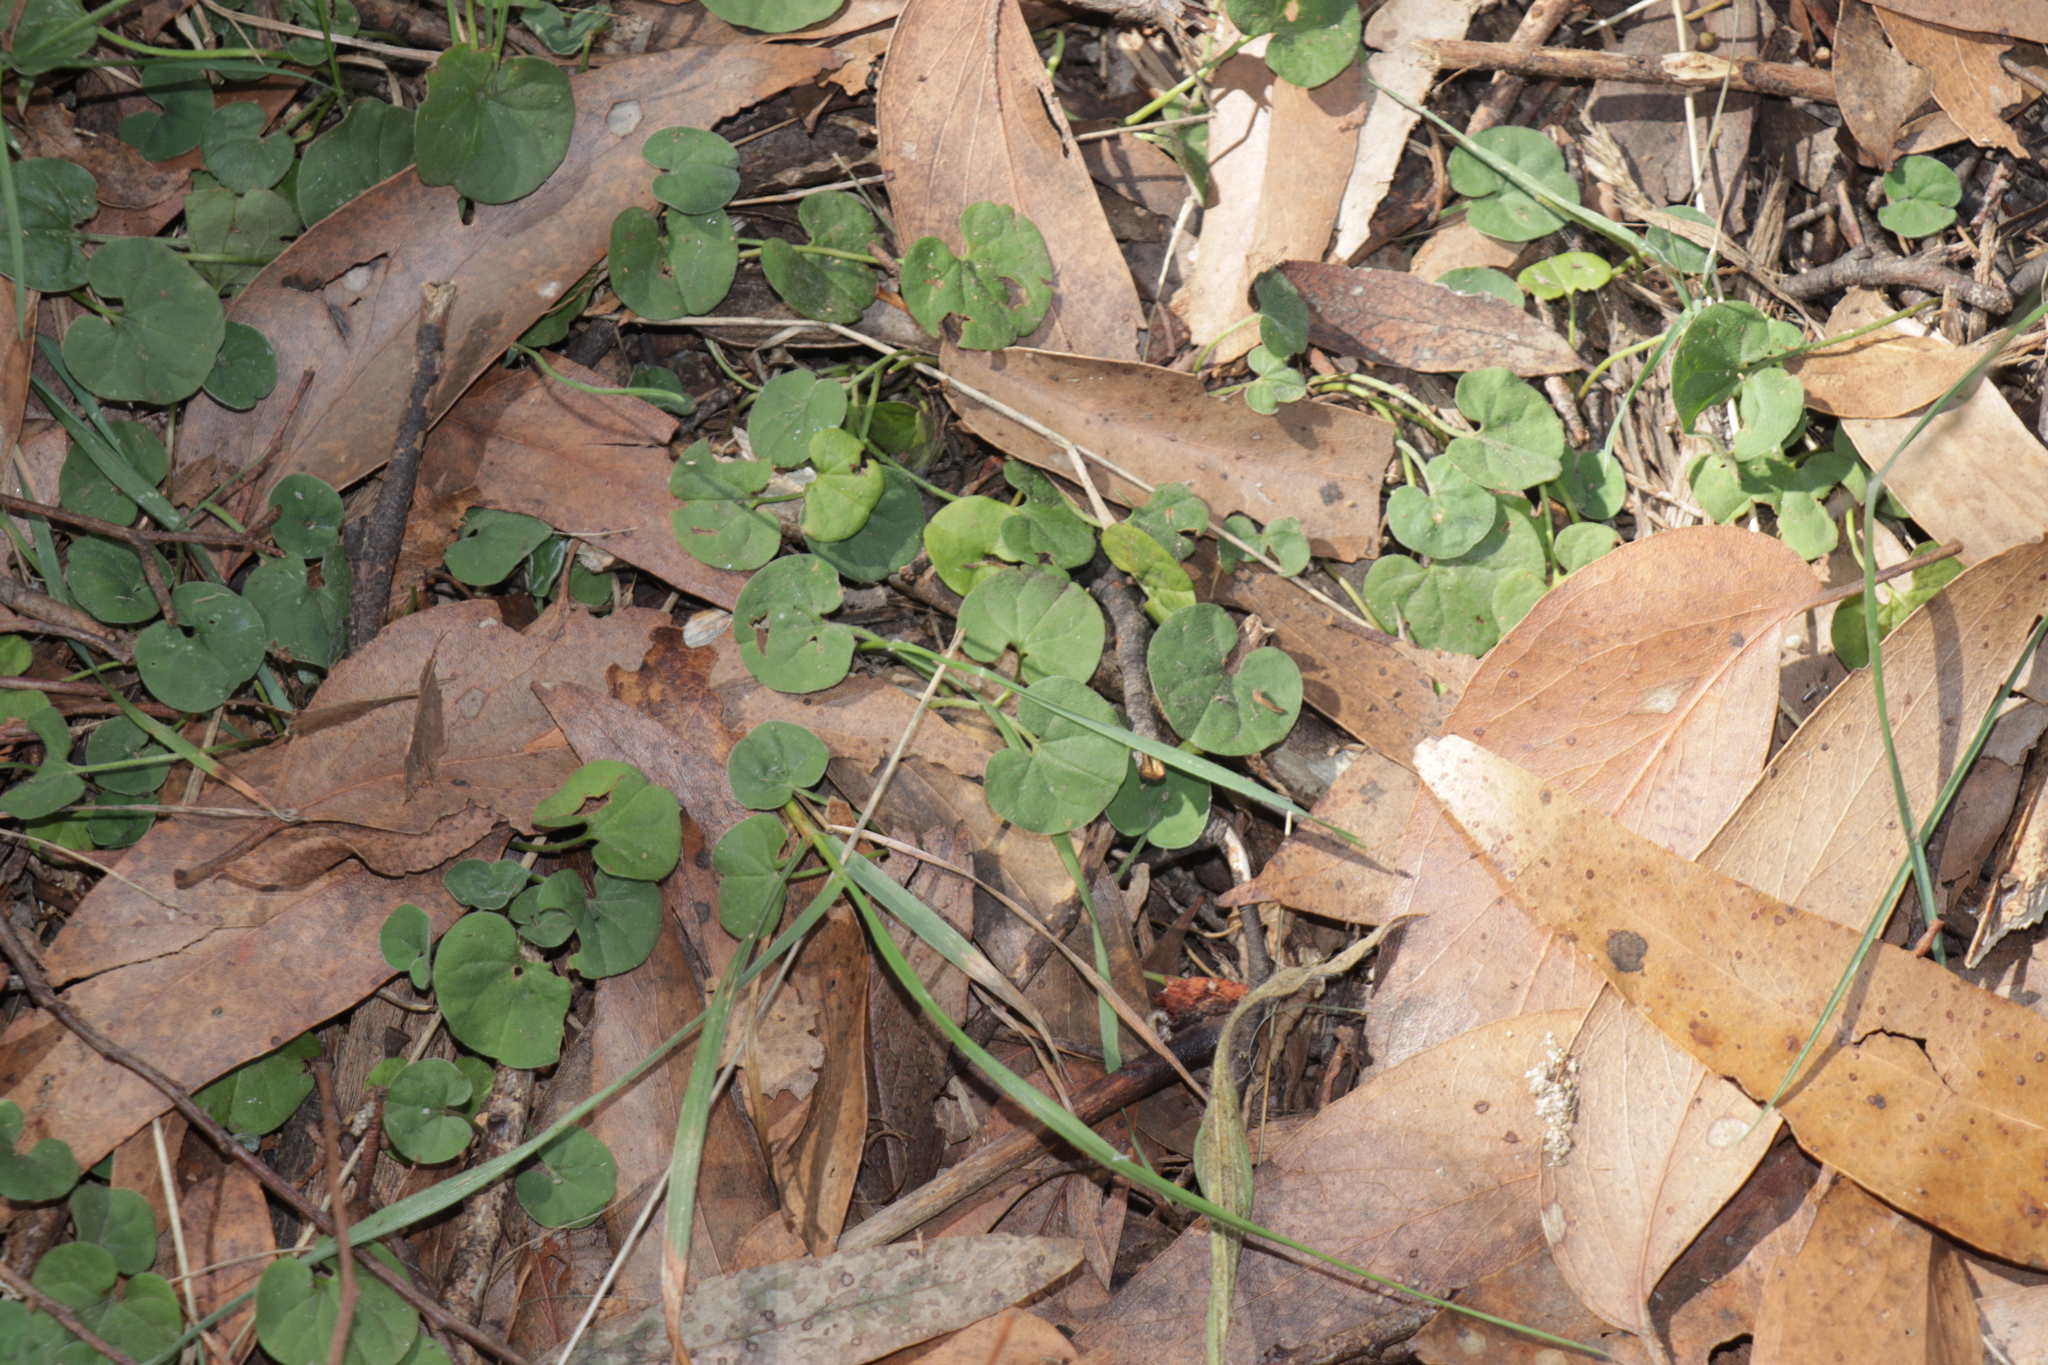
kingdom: Plantae
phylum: Tracheophyta
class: Magnoliopsida
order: Solanales
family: Convolvulaceae
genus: Dichondra
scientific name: Dichondra repens
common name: Kidneyweed
